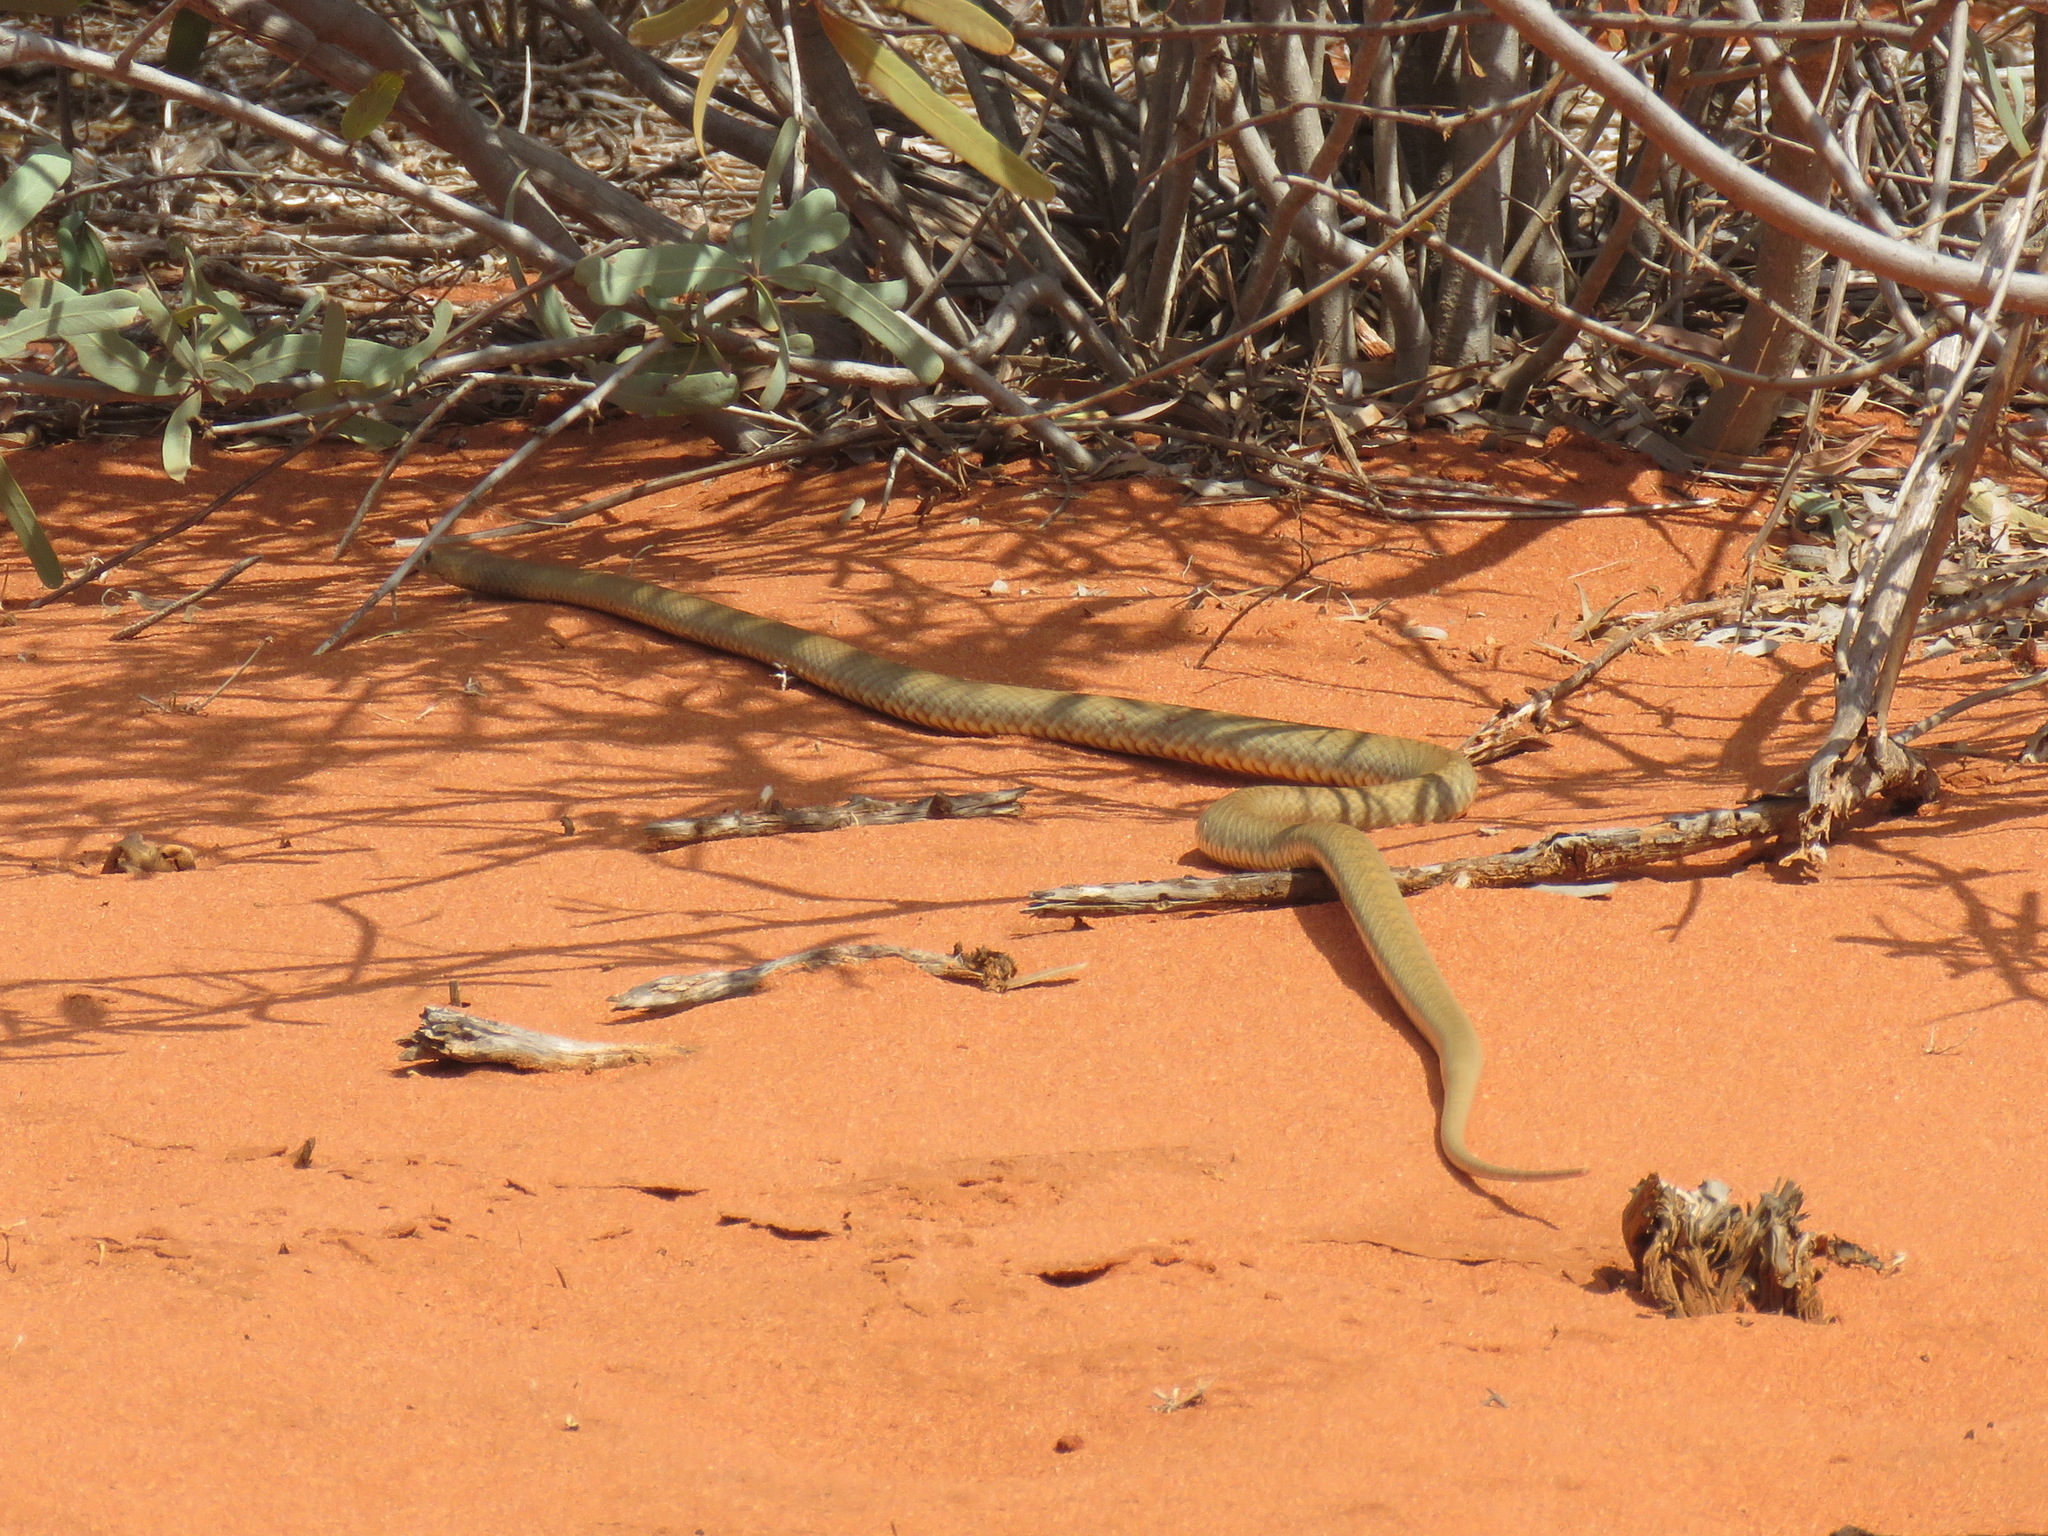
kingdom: Animalia
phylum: Chordata
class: Squamata
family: Elapidae
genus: Pseudonaja
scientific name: Pseudonaja mengdeni
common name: Gwardar
